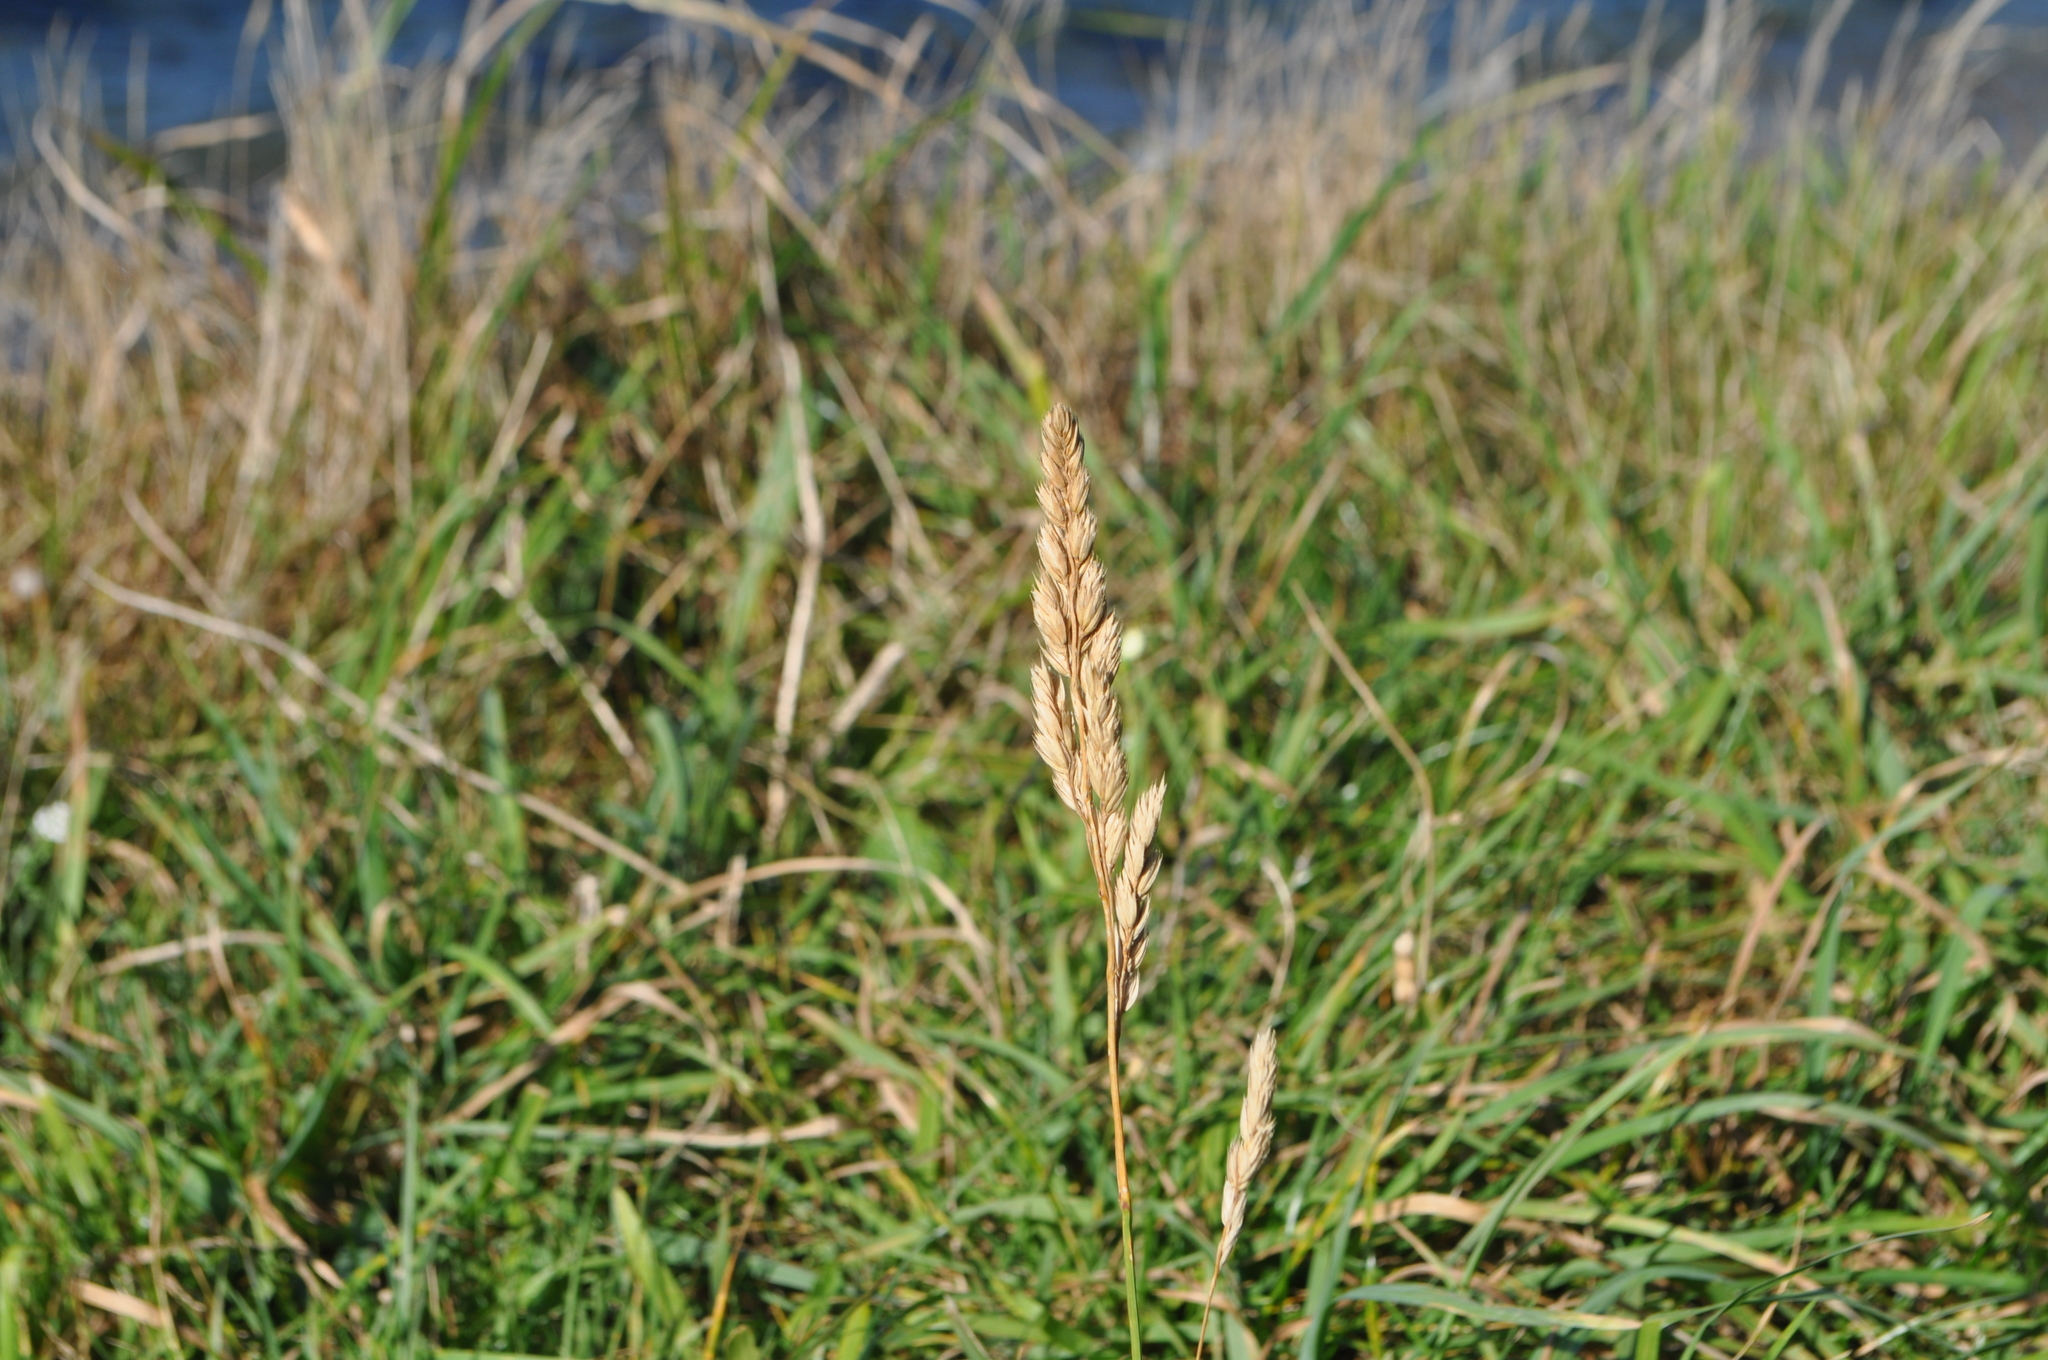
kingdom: Plantae
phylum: Tracheophyta
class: Liliopsida
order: Poales
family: Poaceae
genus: Dactylis
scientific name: Dactylis glomerata
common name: Orchardgrass
